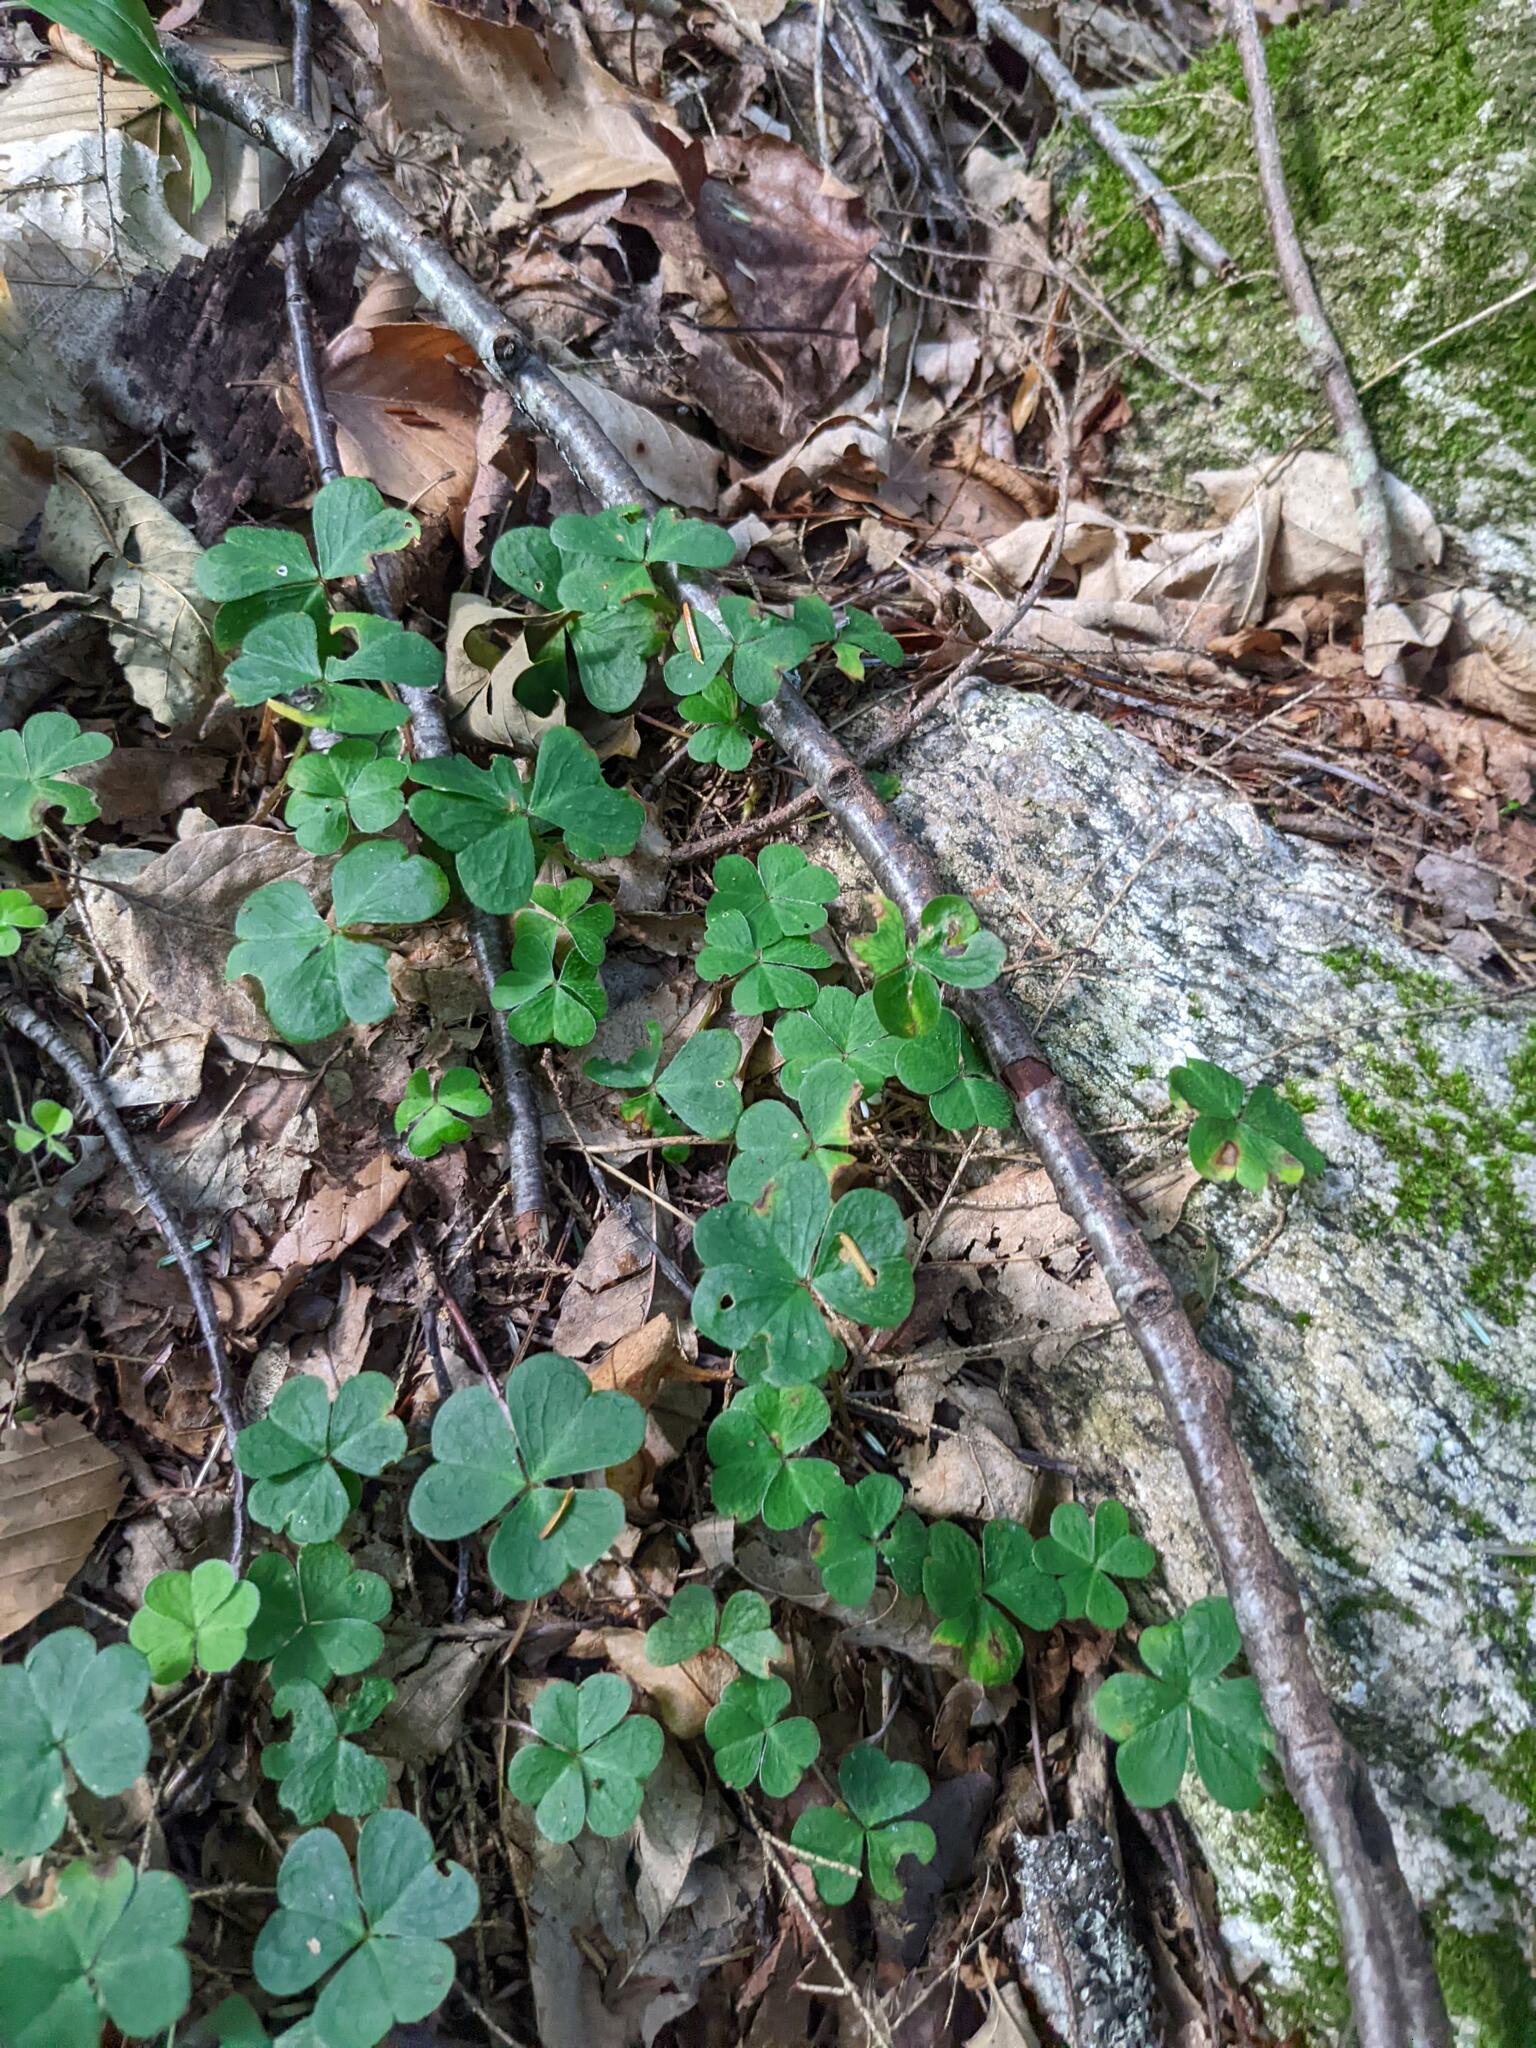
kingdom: Plantae
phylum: Tracheophyta
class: Magnoliopsida
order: Oxalidales
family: Oxalidaceae
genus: Oxalis
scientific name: Oxalis montana
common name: American wood-sorrel
